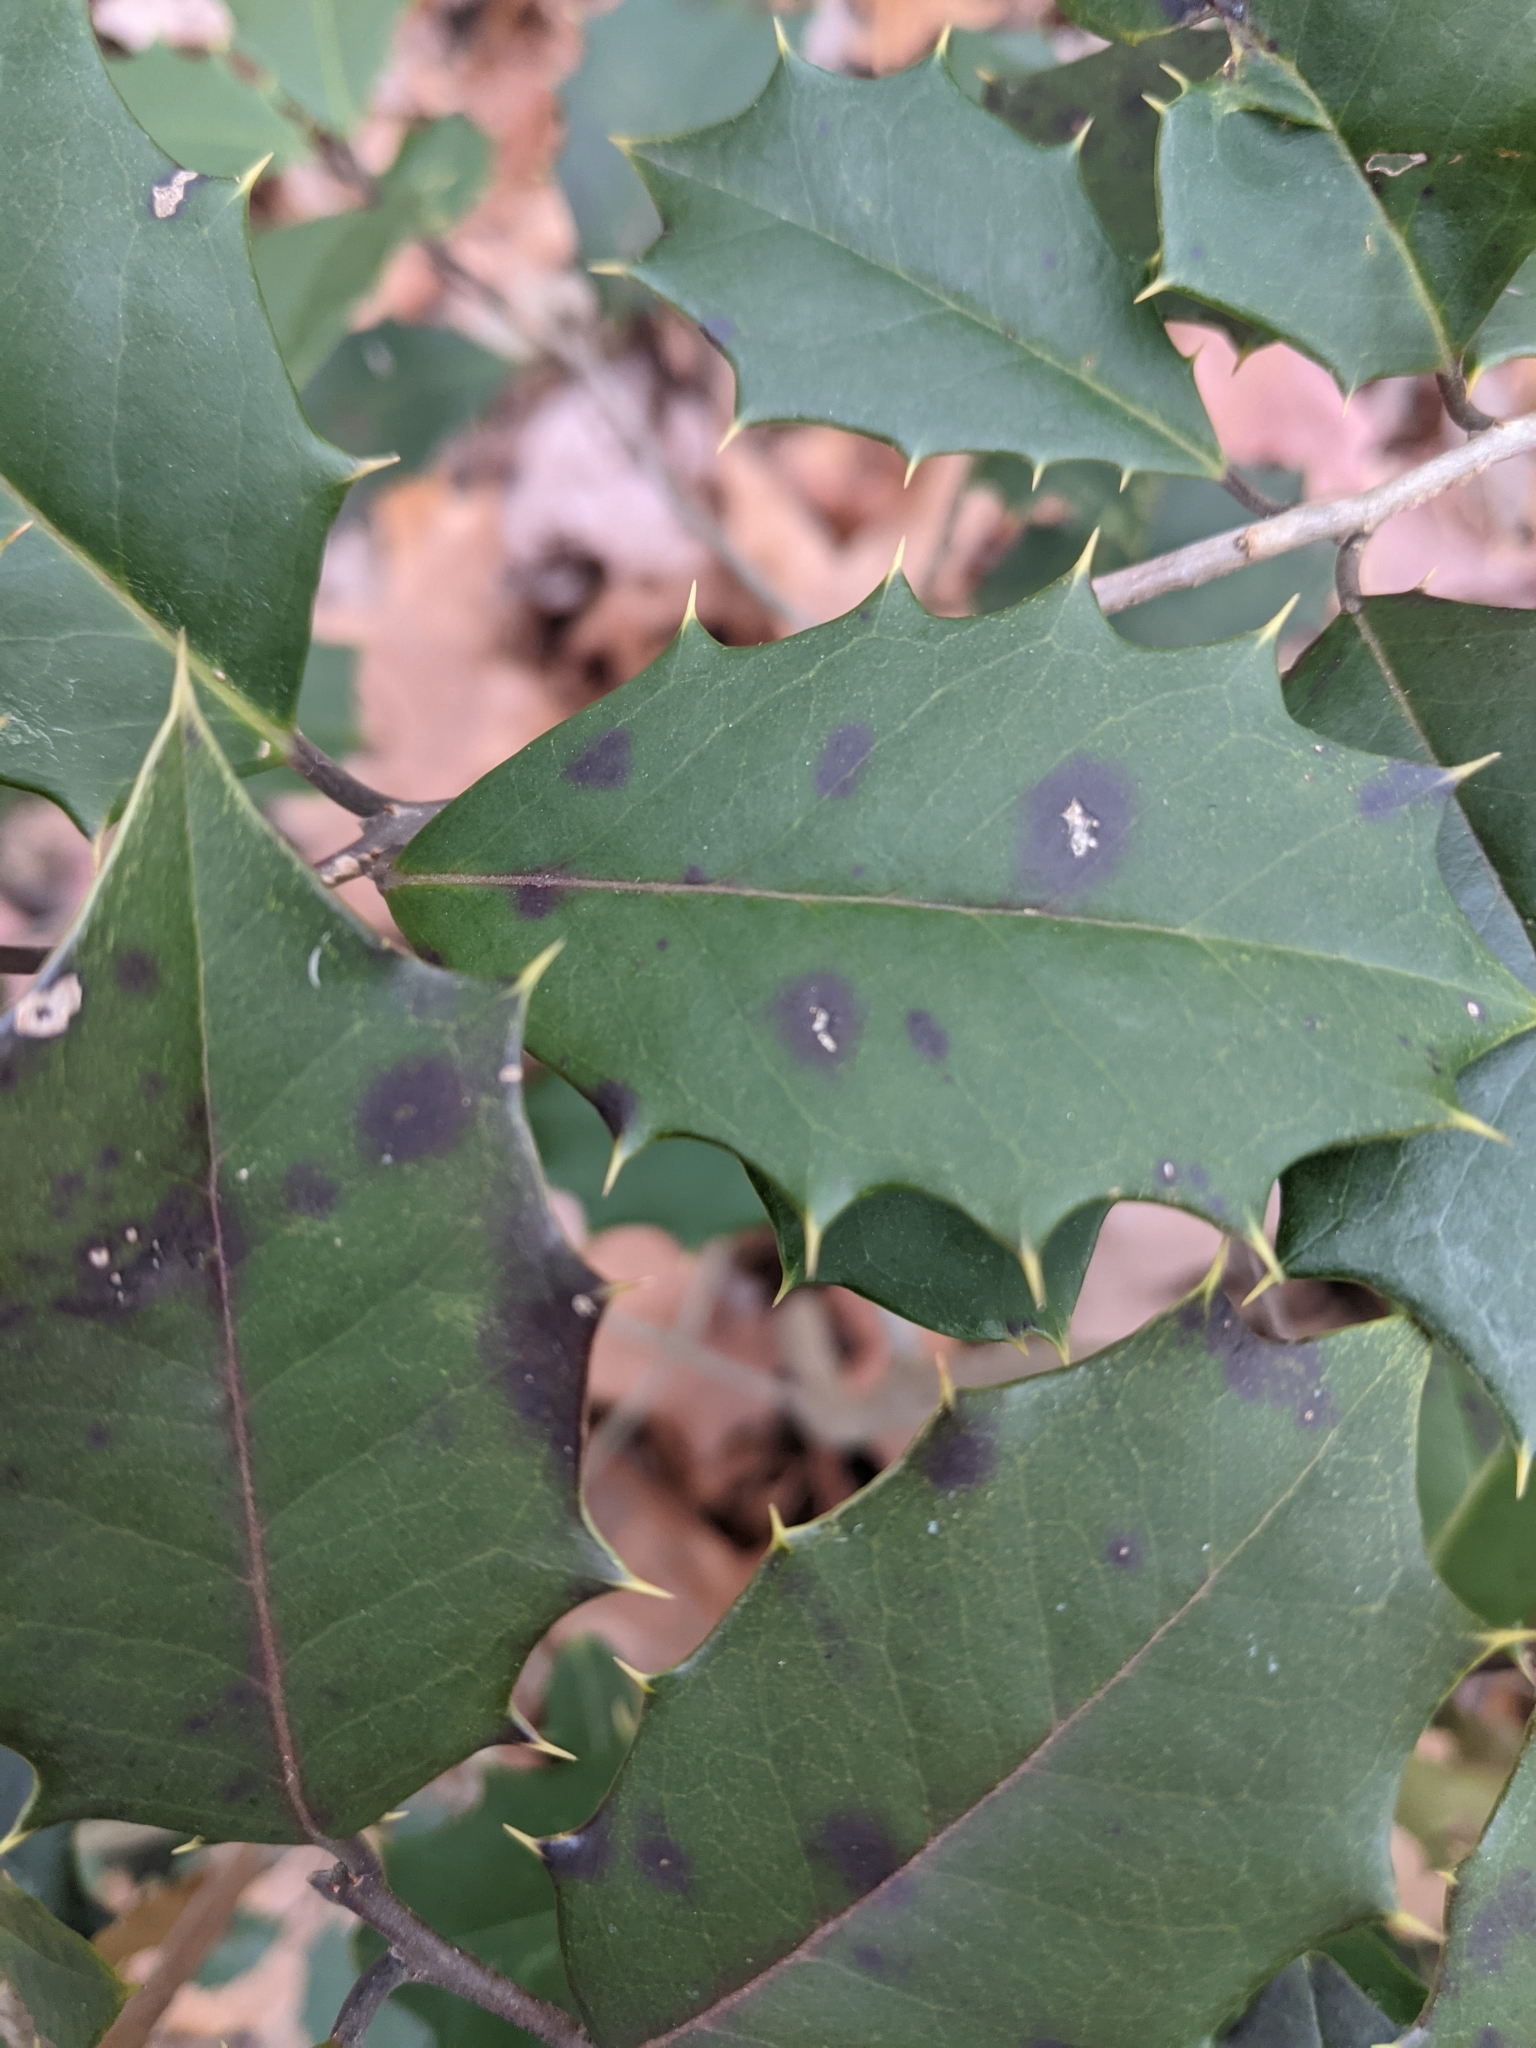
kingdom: Plantae
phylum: Tracheophyta
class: Magnoliopsida
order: Aquifoliales
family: Aquifoliaceae
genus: Ilex
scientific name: Ilex opaca
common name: American holly
